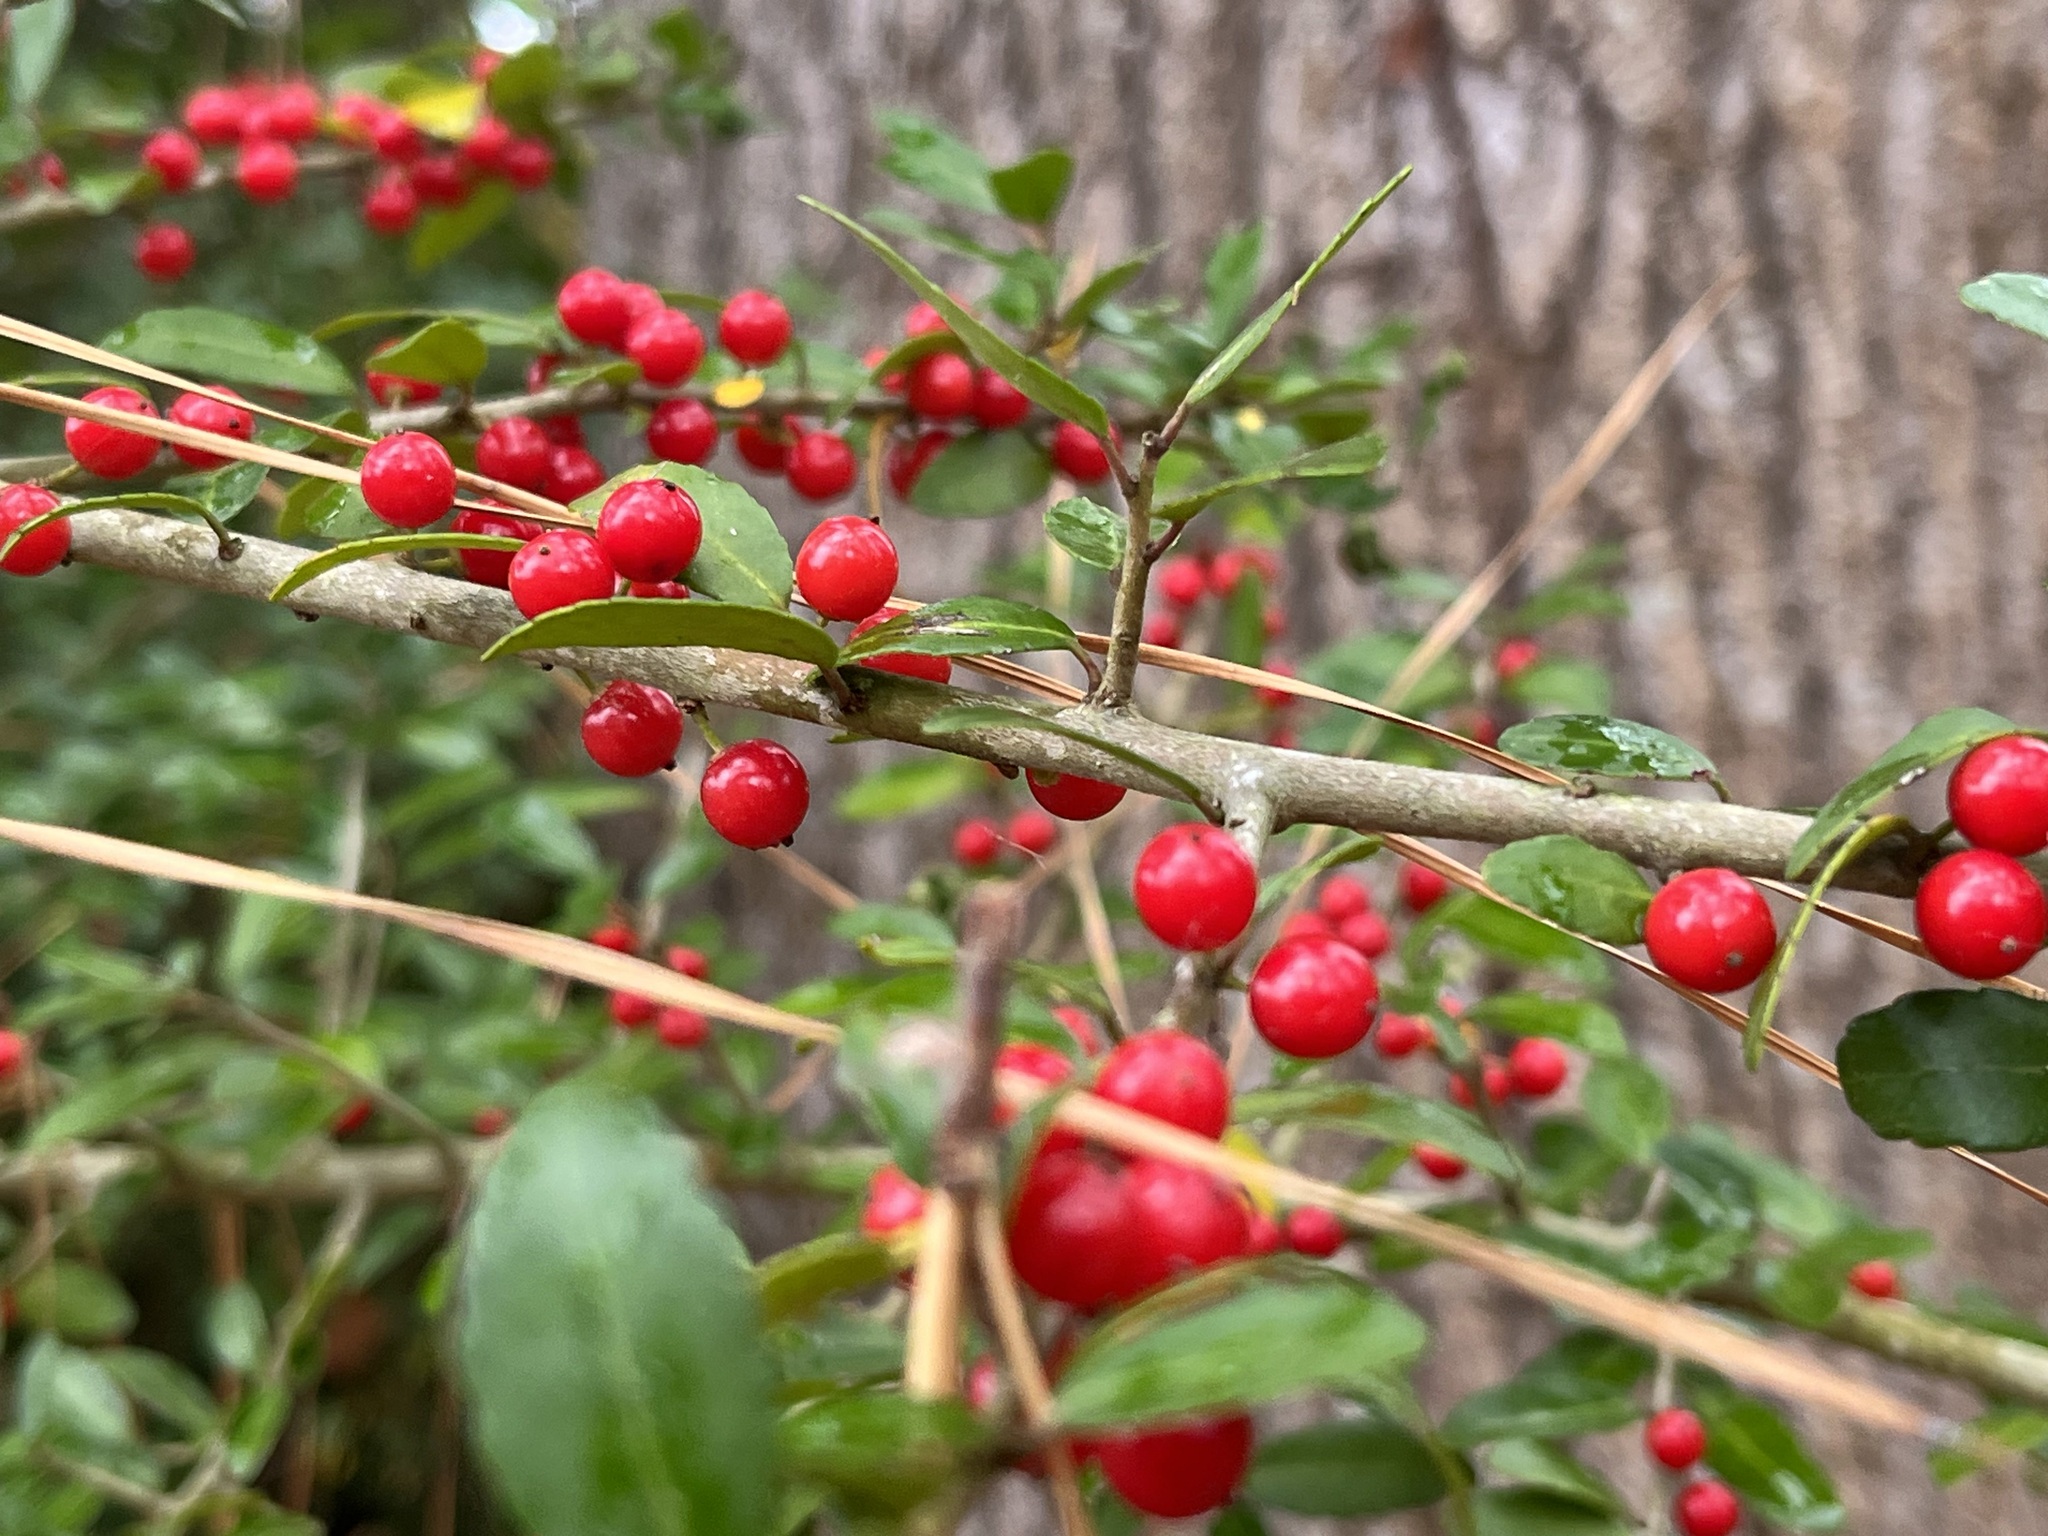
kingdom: Plantae
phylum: Tracheophyta
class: Magnoliopsida
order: Aquifoliales
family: Aquifoliaceae
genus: Ilex
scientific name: Ilex vomitoria
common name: Yaupon holly
